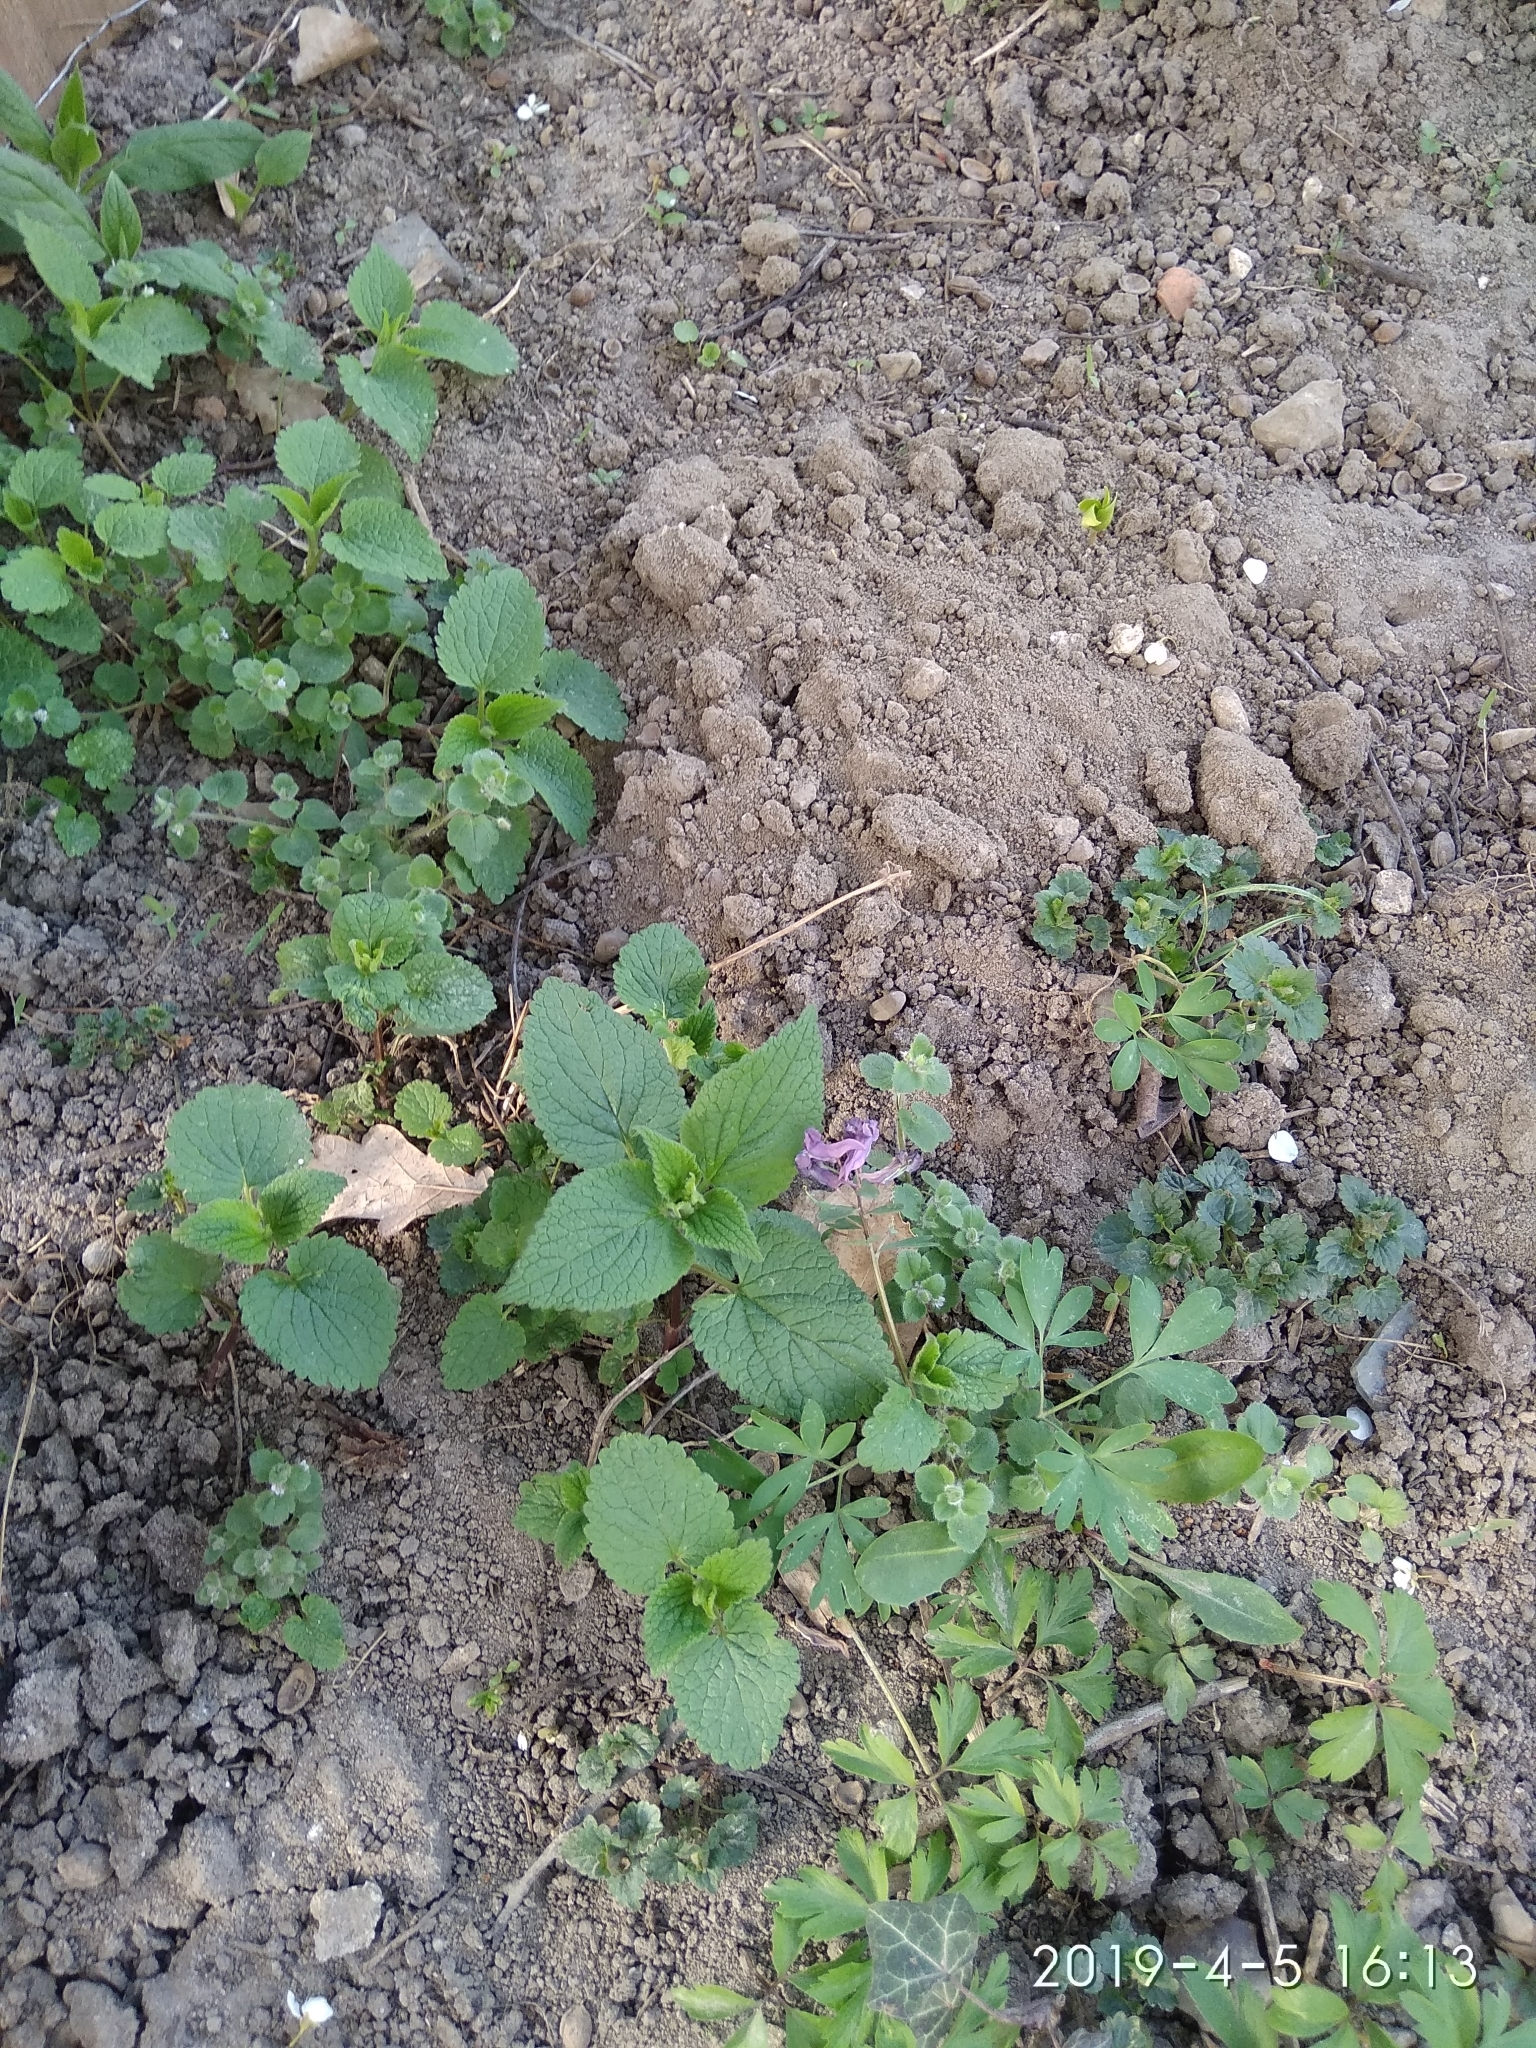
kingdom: Plantae
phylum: Tracheophyta
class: Magnoliopsida
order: Ranunculales
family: Papaveraceae
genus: Corydalis
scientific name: Corydalis solida
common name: Bird-in-a-bush
